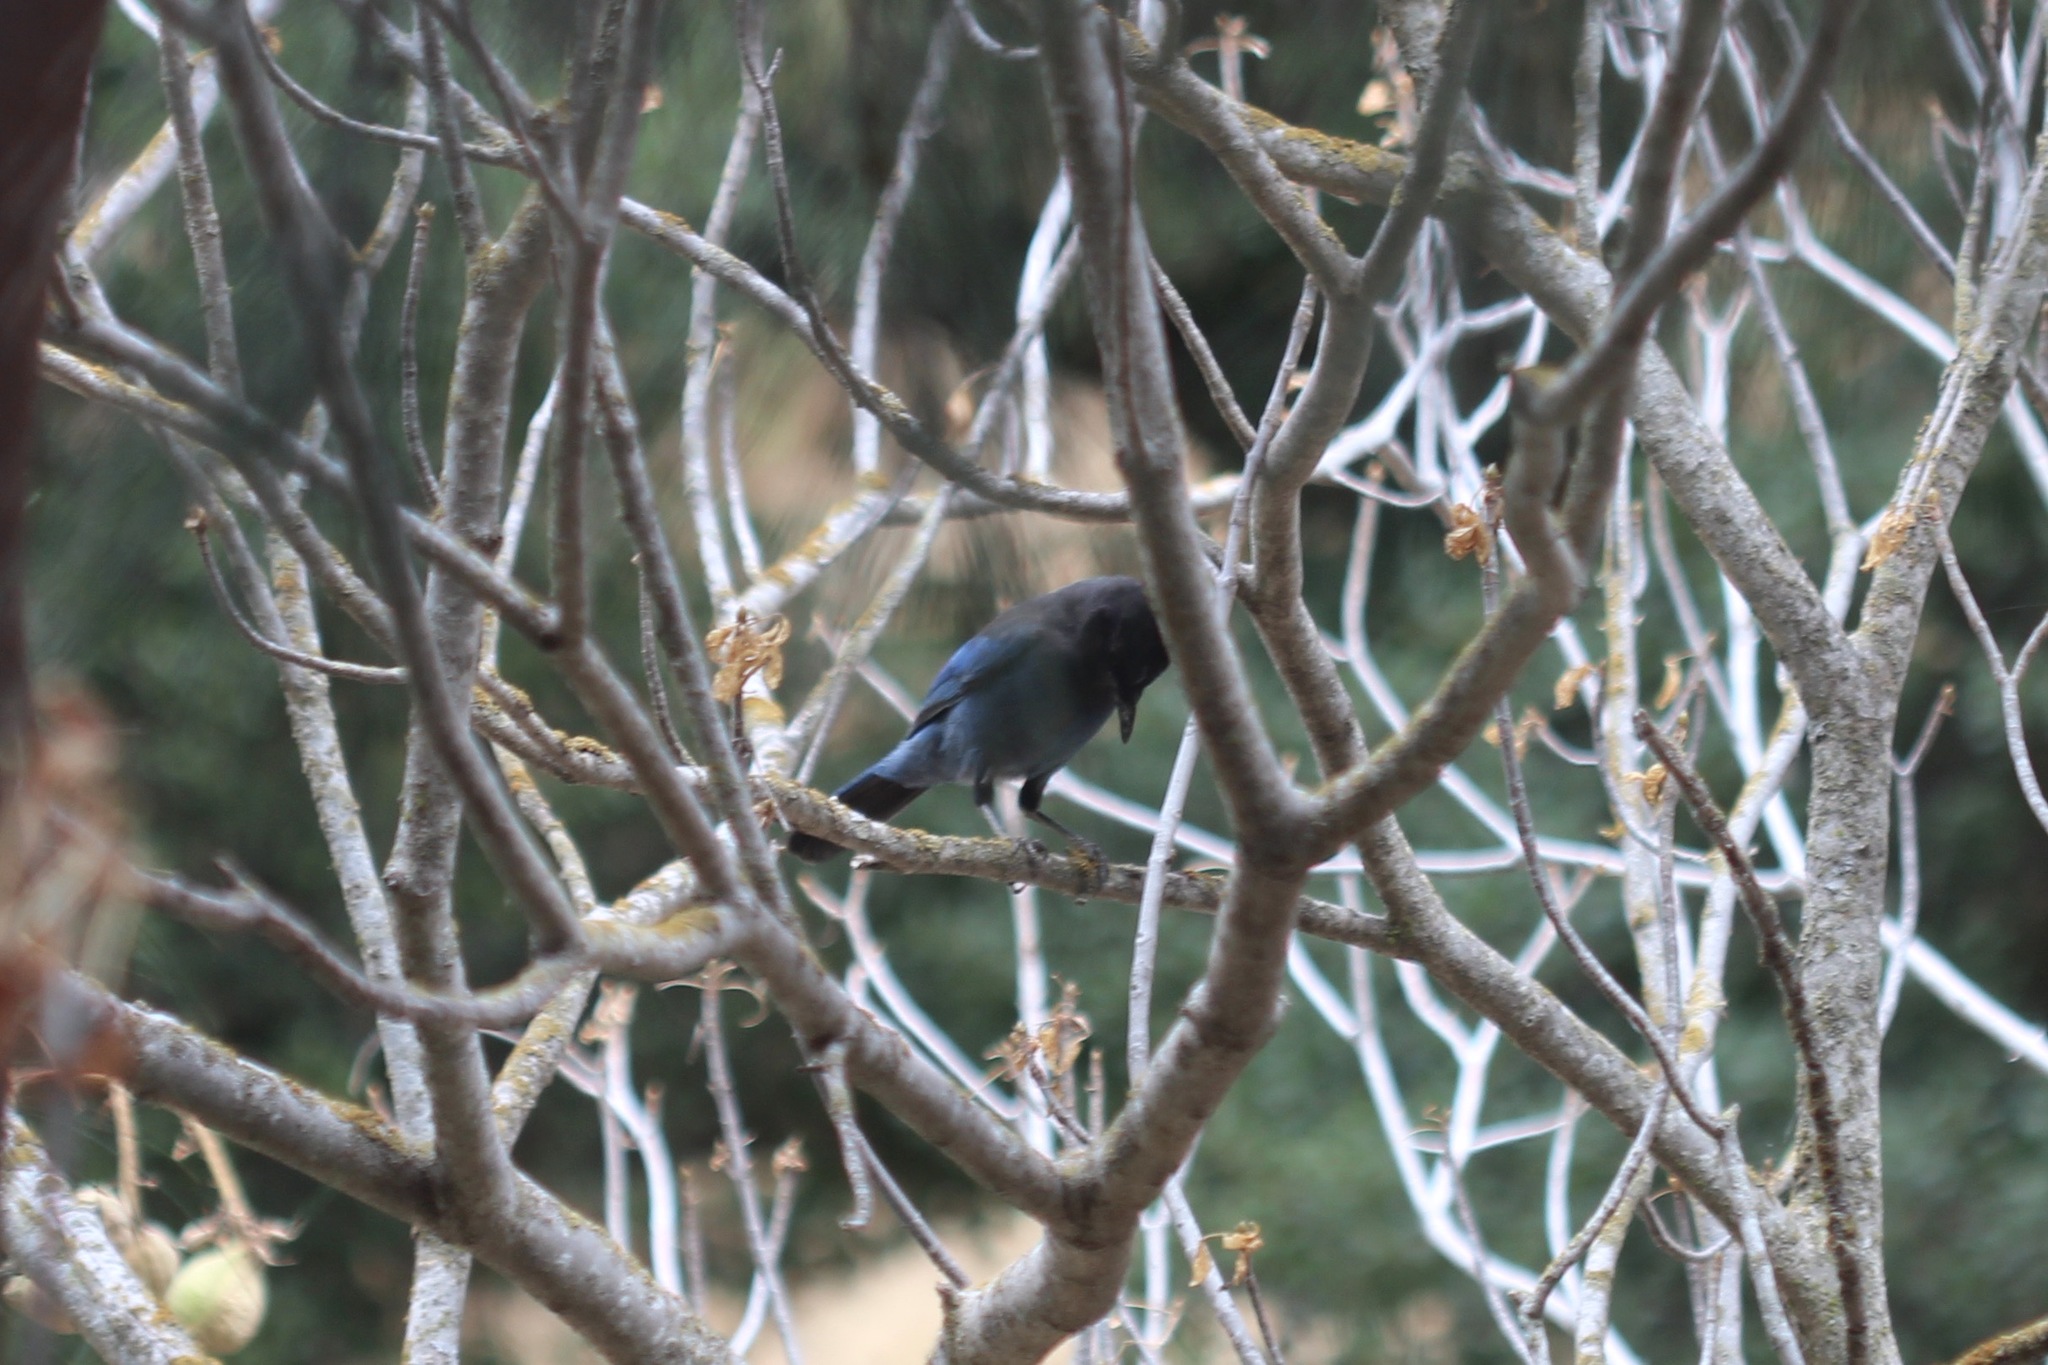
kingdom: Animalia
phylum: Chordata
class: Aves
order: Passeriformes
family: Corvidae
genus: Cyanocitta
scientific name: Cyanocitta stelleri
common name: Steller's jay
